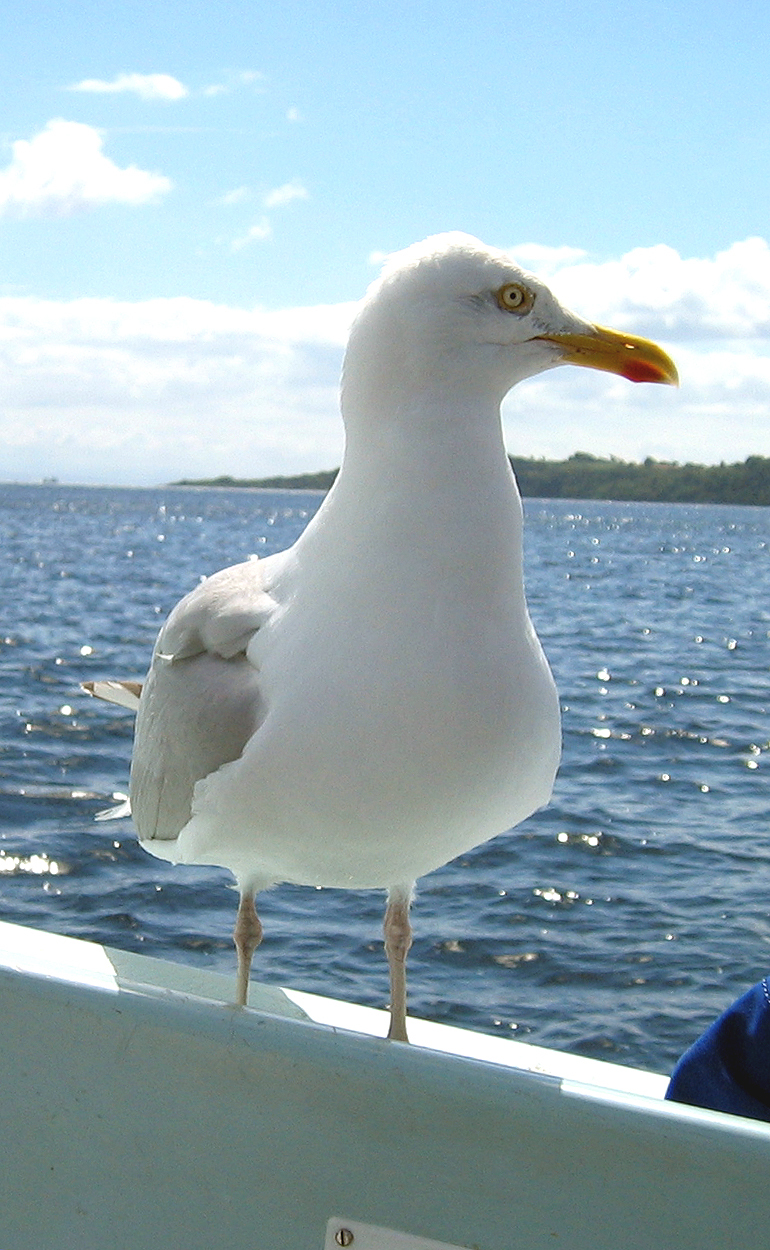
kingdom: Animalia
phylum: Chordata
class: Aves
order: Charadriiformes
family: Laridae
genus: Larus
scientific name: Larus argentatus
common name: Herring gull
